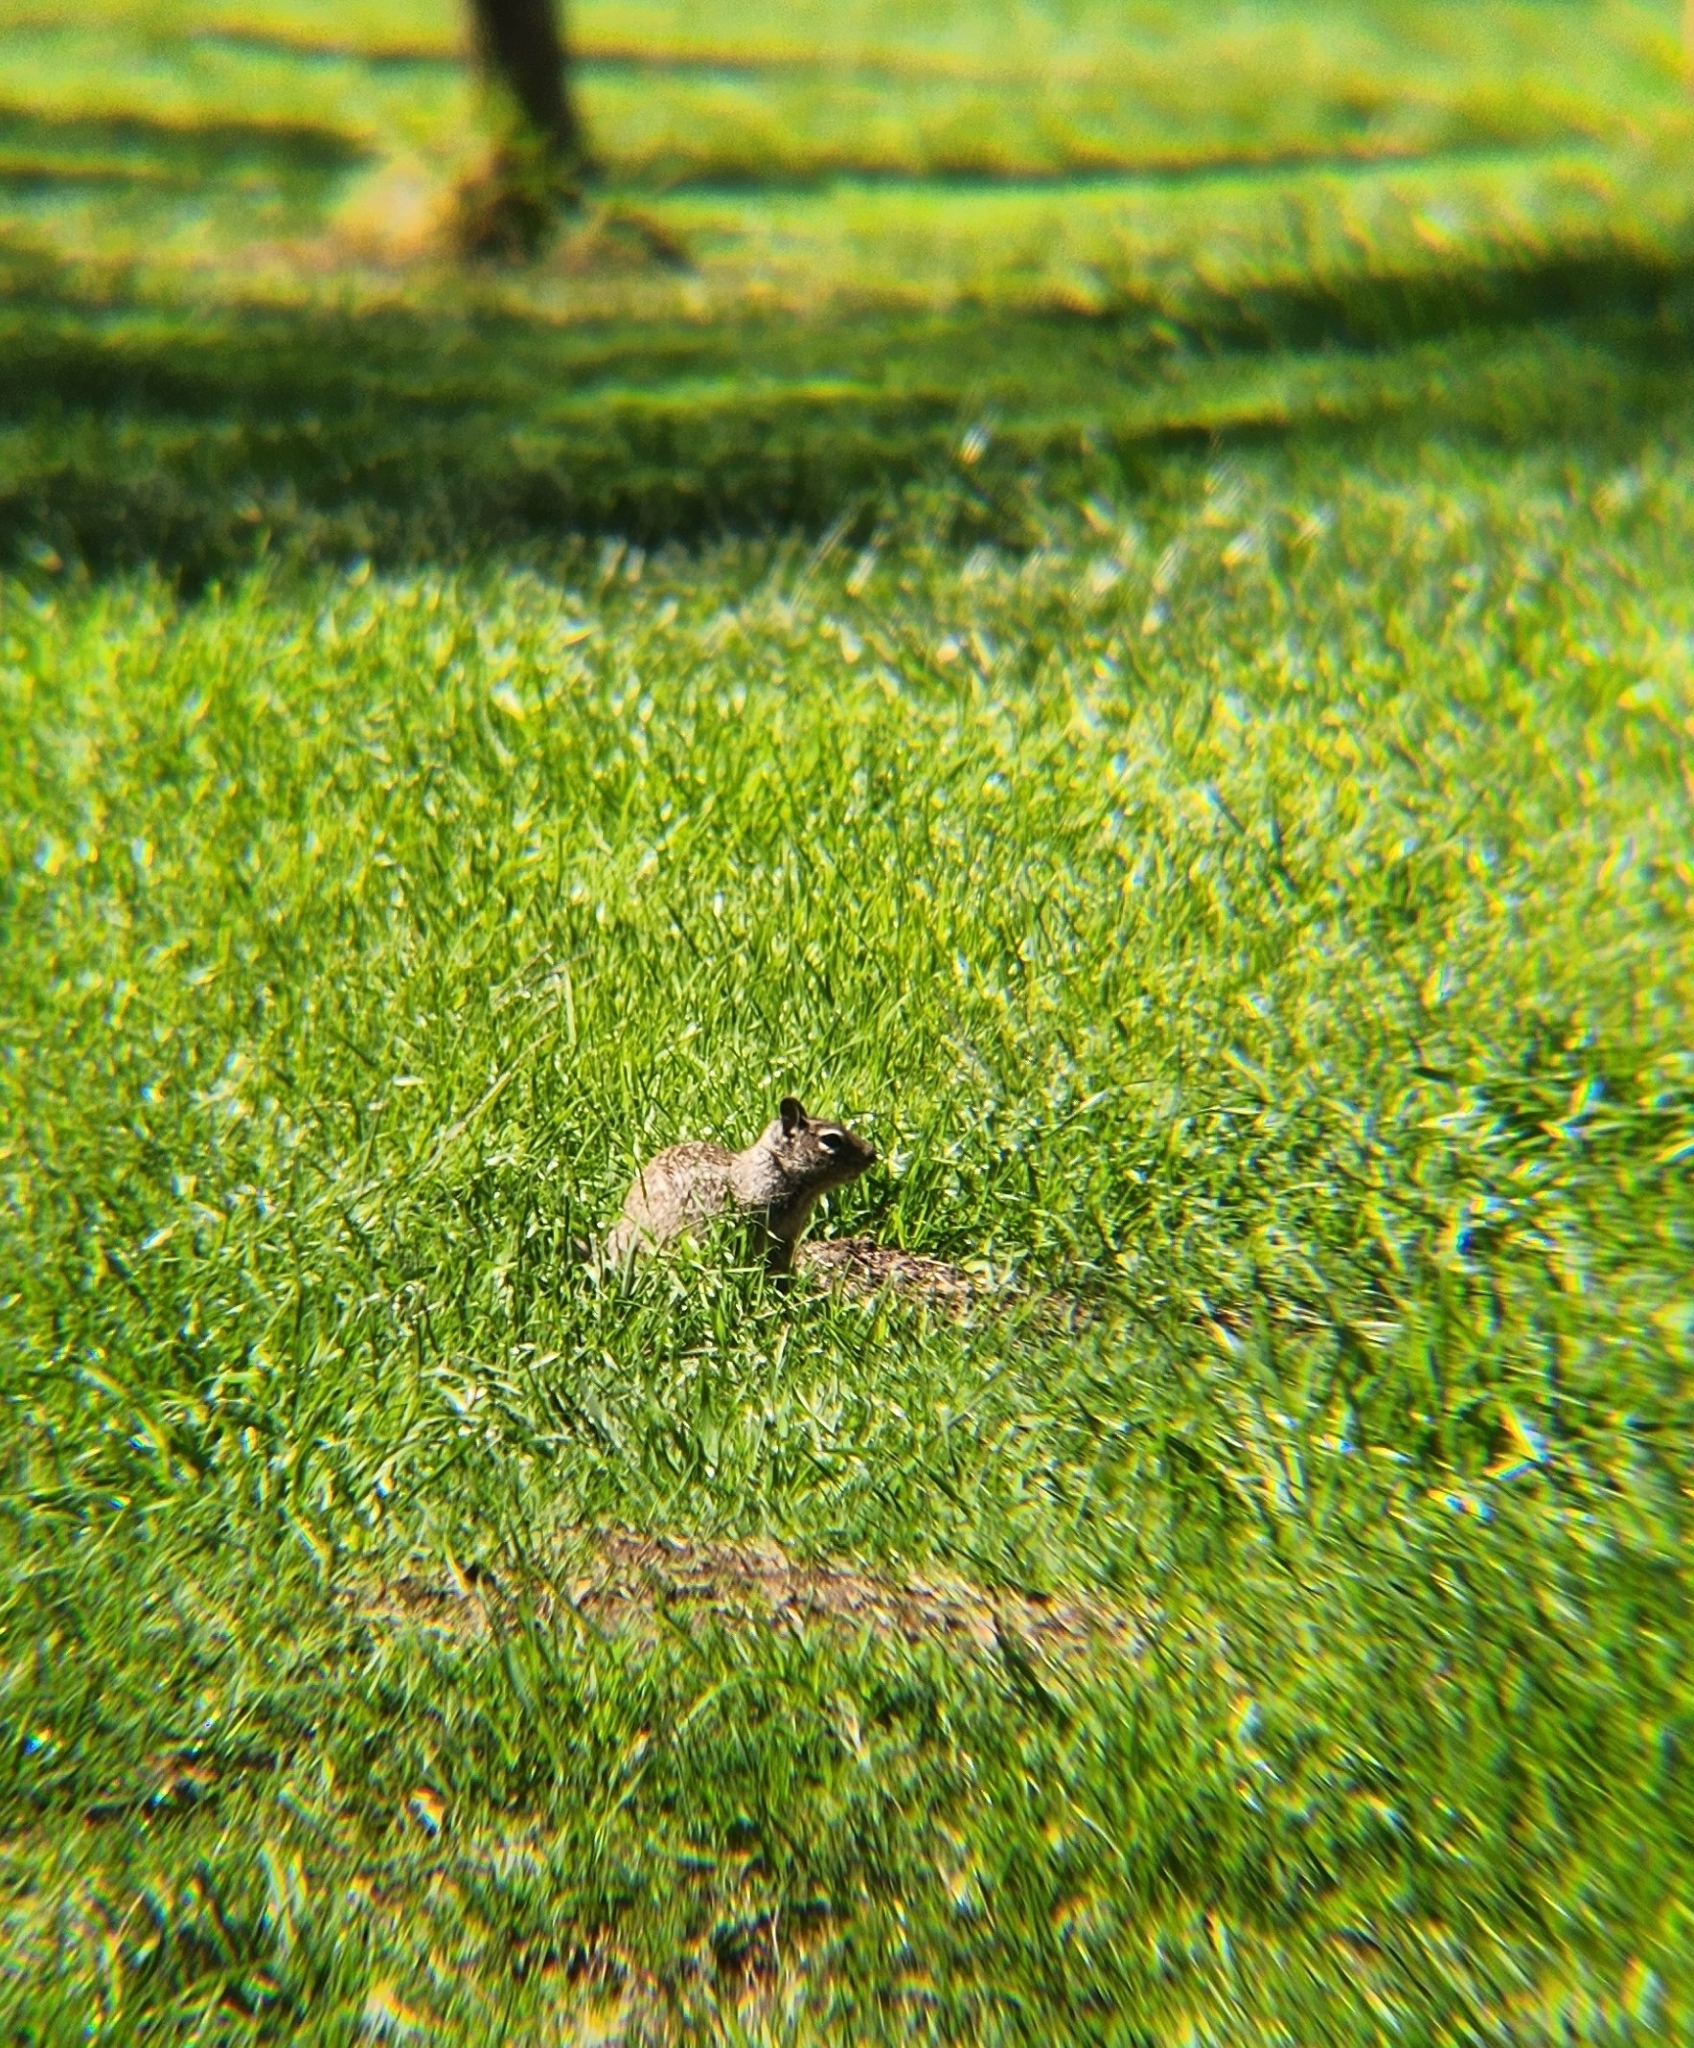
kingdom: Animalia
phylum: Chordata
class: Mammalia
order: Rodentia
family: Sciuridae
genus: Otospermophilus
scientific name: Otospermophilus beecheyi
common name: California ground squirrel
